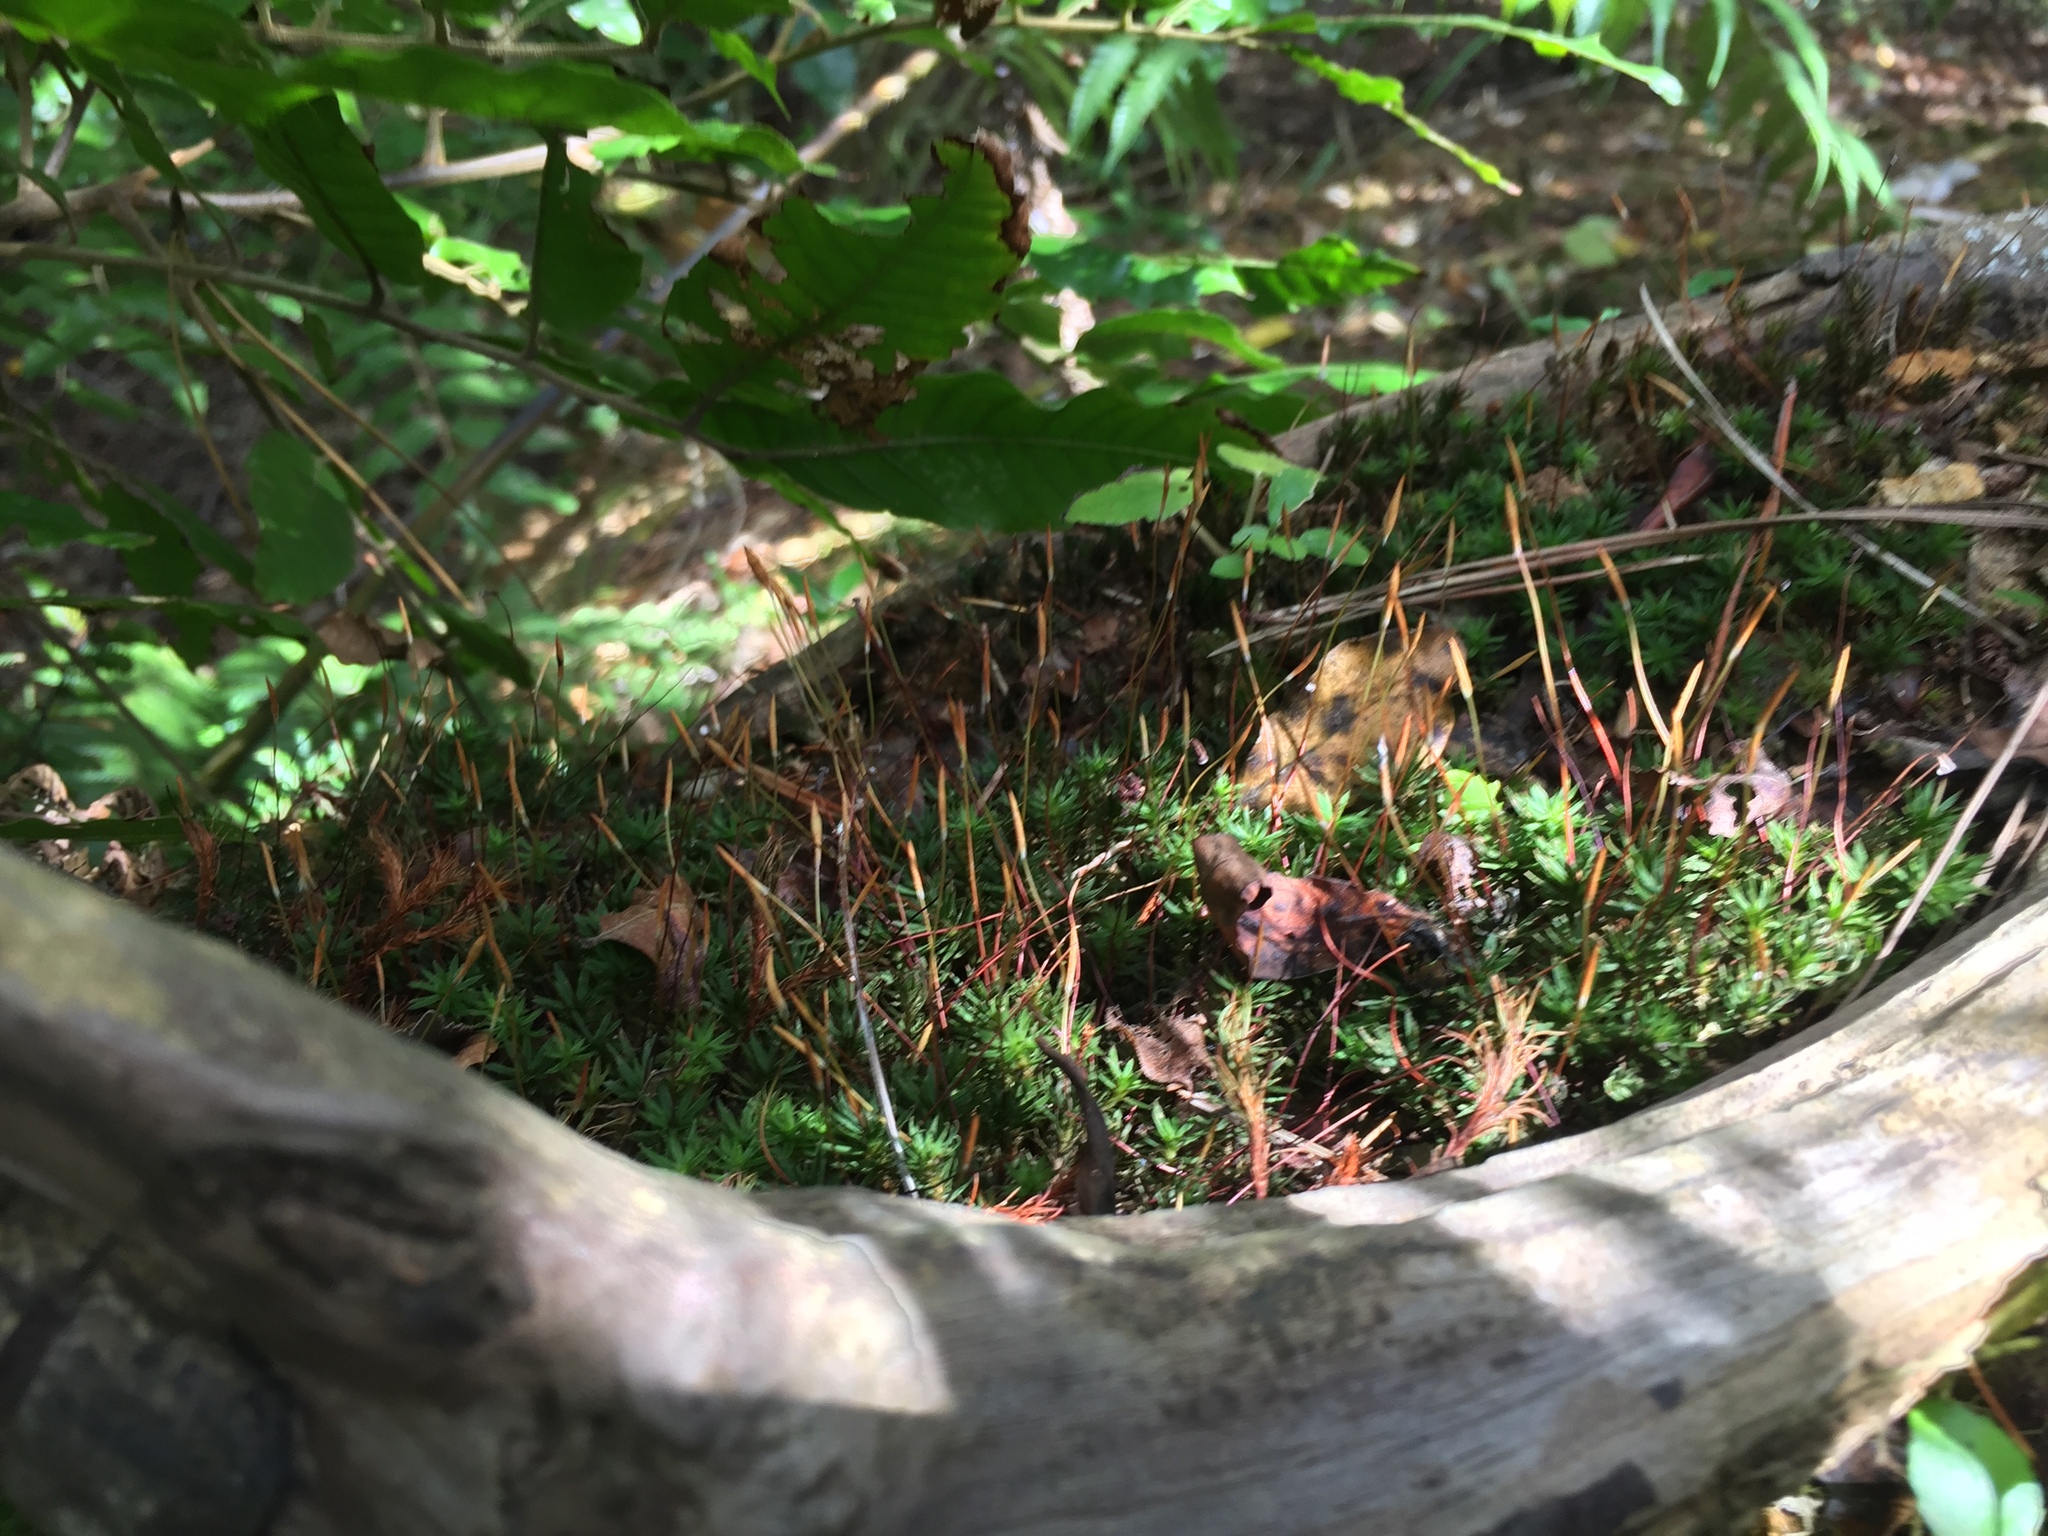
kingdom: Plantae
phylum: Bryophyta
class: Polytrichopsida
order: Polytrichales
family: Polytrichaceae
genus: Pogonatum
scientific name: Pogonatum subulatum
